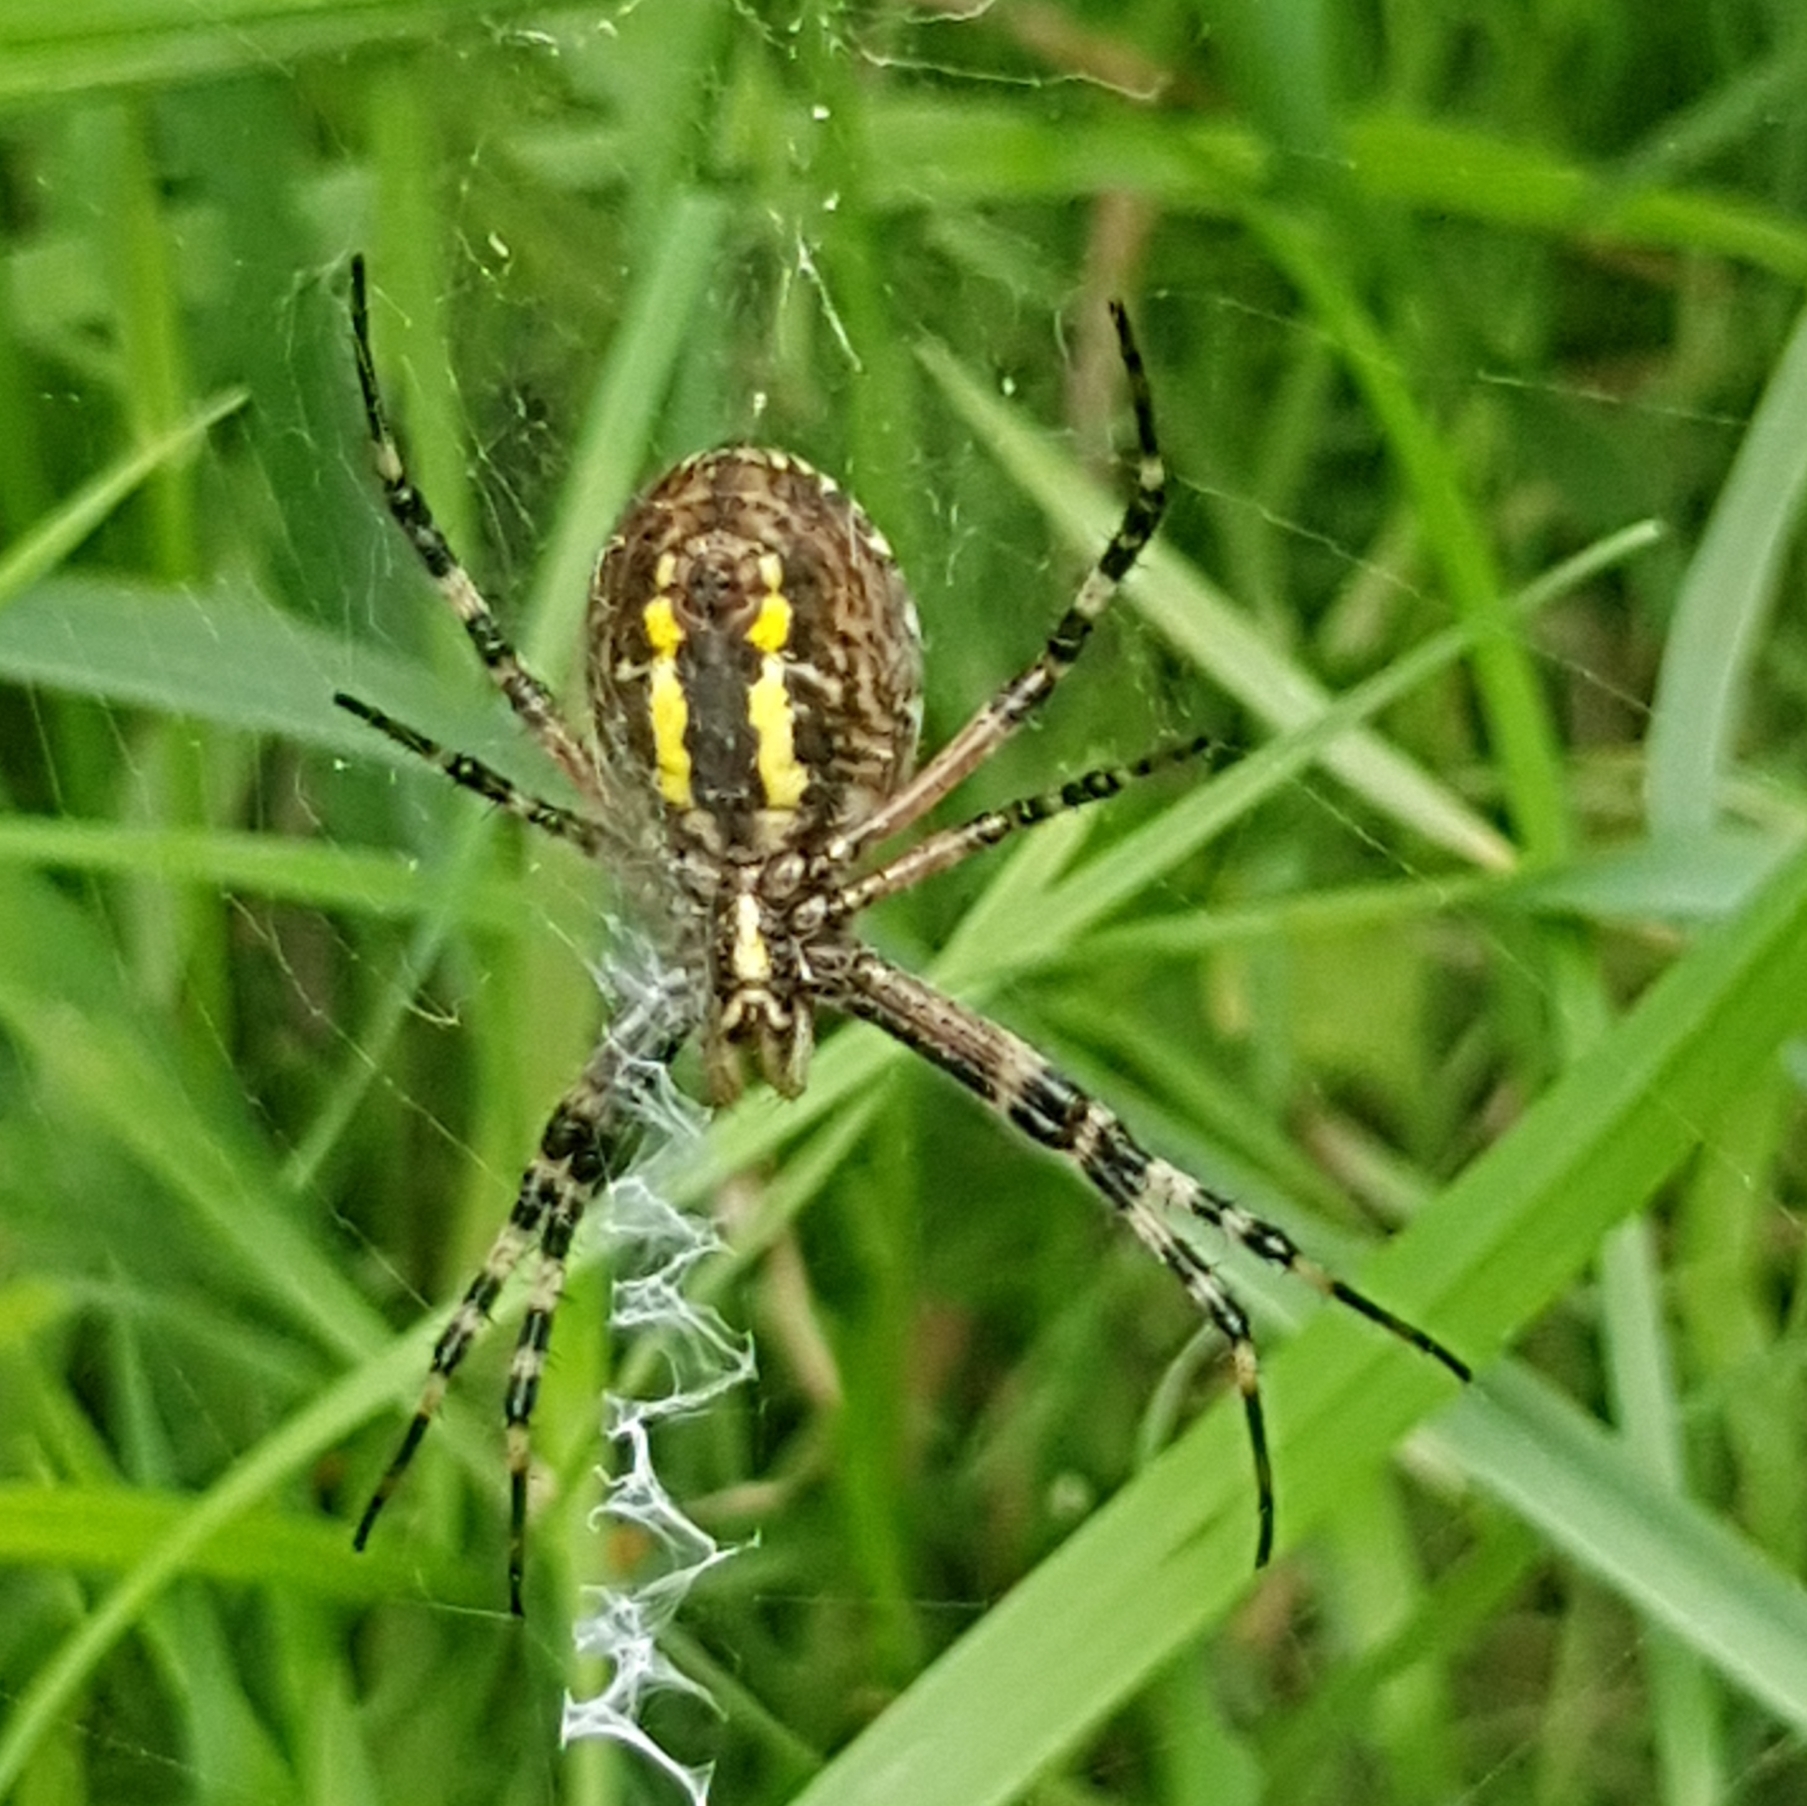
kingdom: Animalia
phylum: Arthropoda
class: Arachnida
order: Araneae
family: Araneidae
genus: Argiope
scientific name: Argiope bruennichi
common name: Wasp spider
